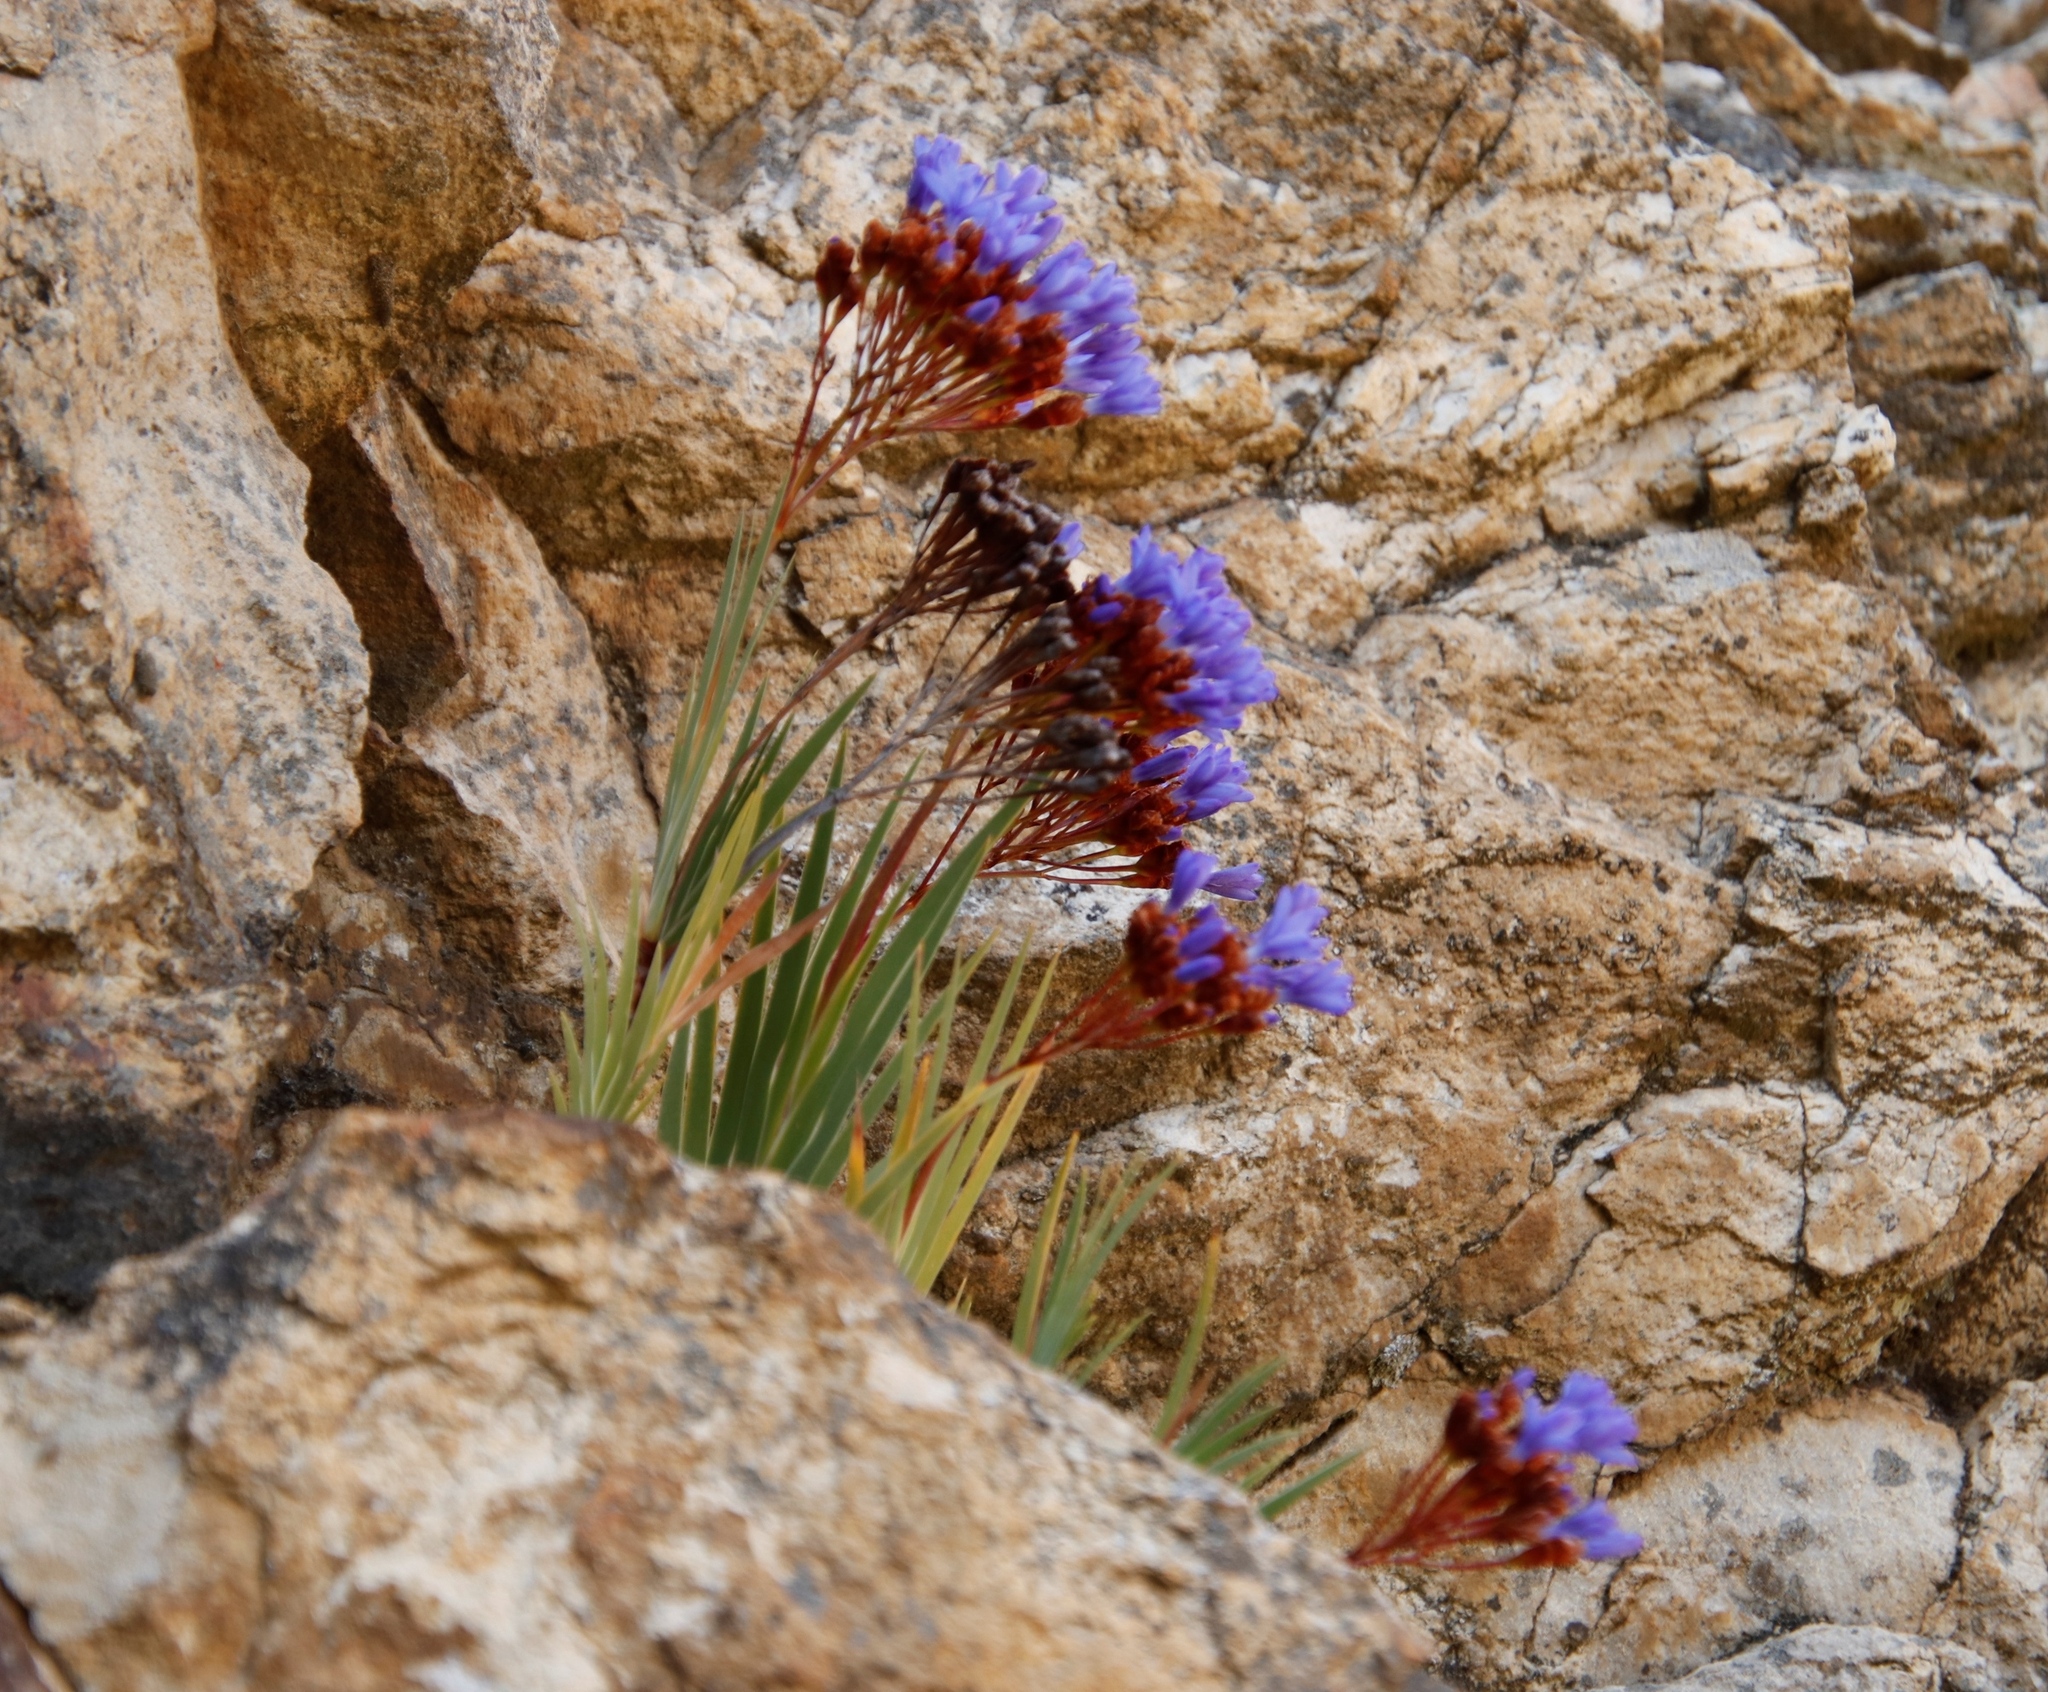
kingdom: Plantae
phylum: Tracheophyta
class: Liliopsida
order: Asparagales
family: Iridaceae
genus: Nivenia
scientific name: Nivenia binata
